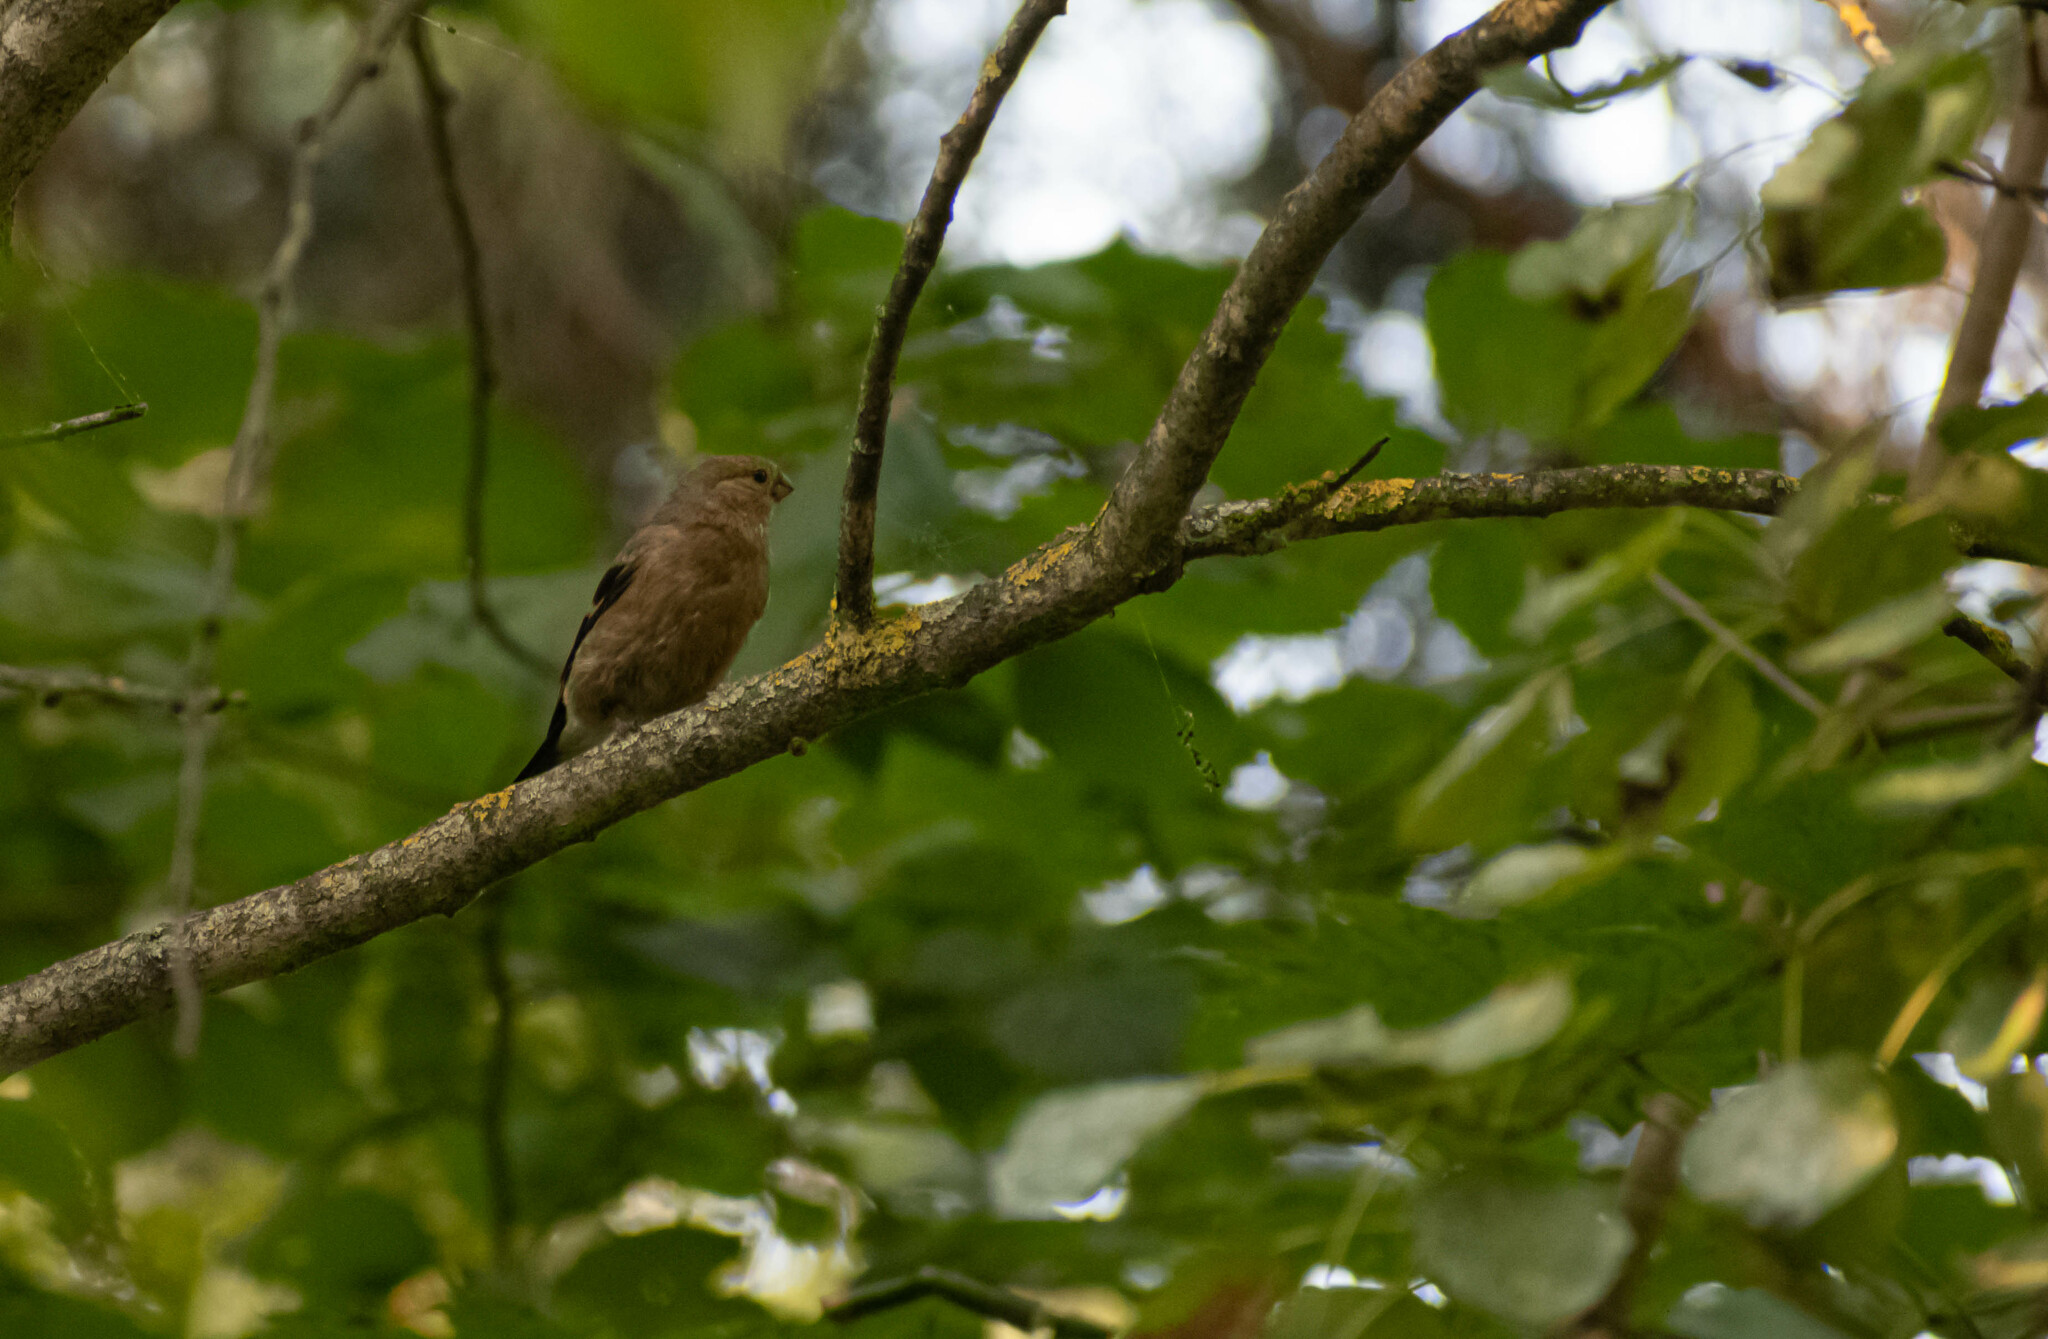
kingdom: Animalia
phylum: Chordata
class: Aves
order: Passeriformes
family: Fringillidae
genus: Pyrrhula
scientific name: Pyrrhula pyrrhula
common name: Eurasian bullfinch
